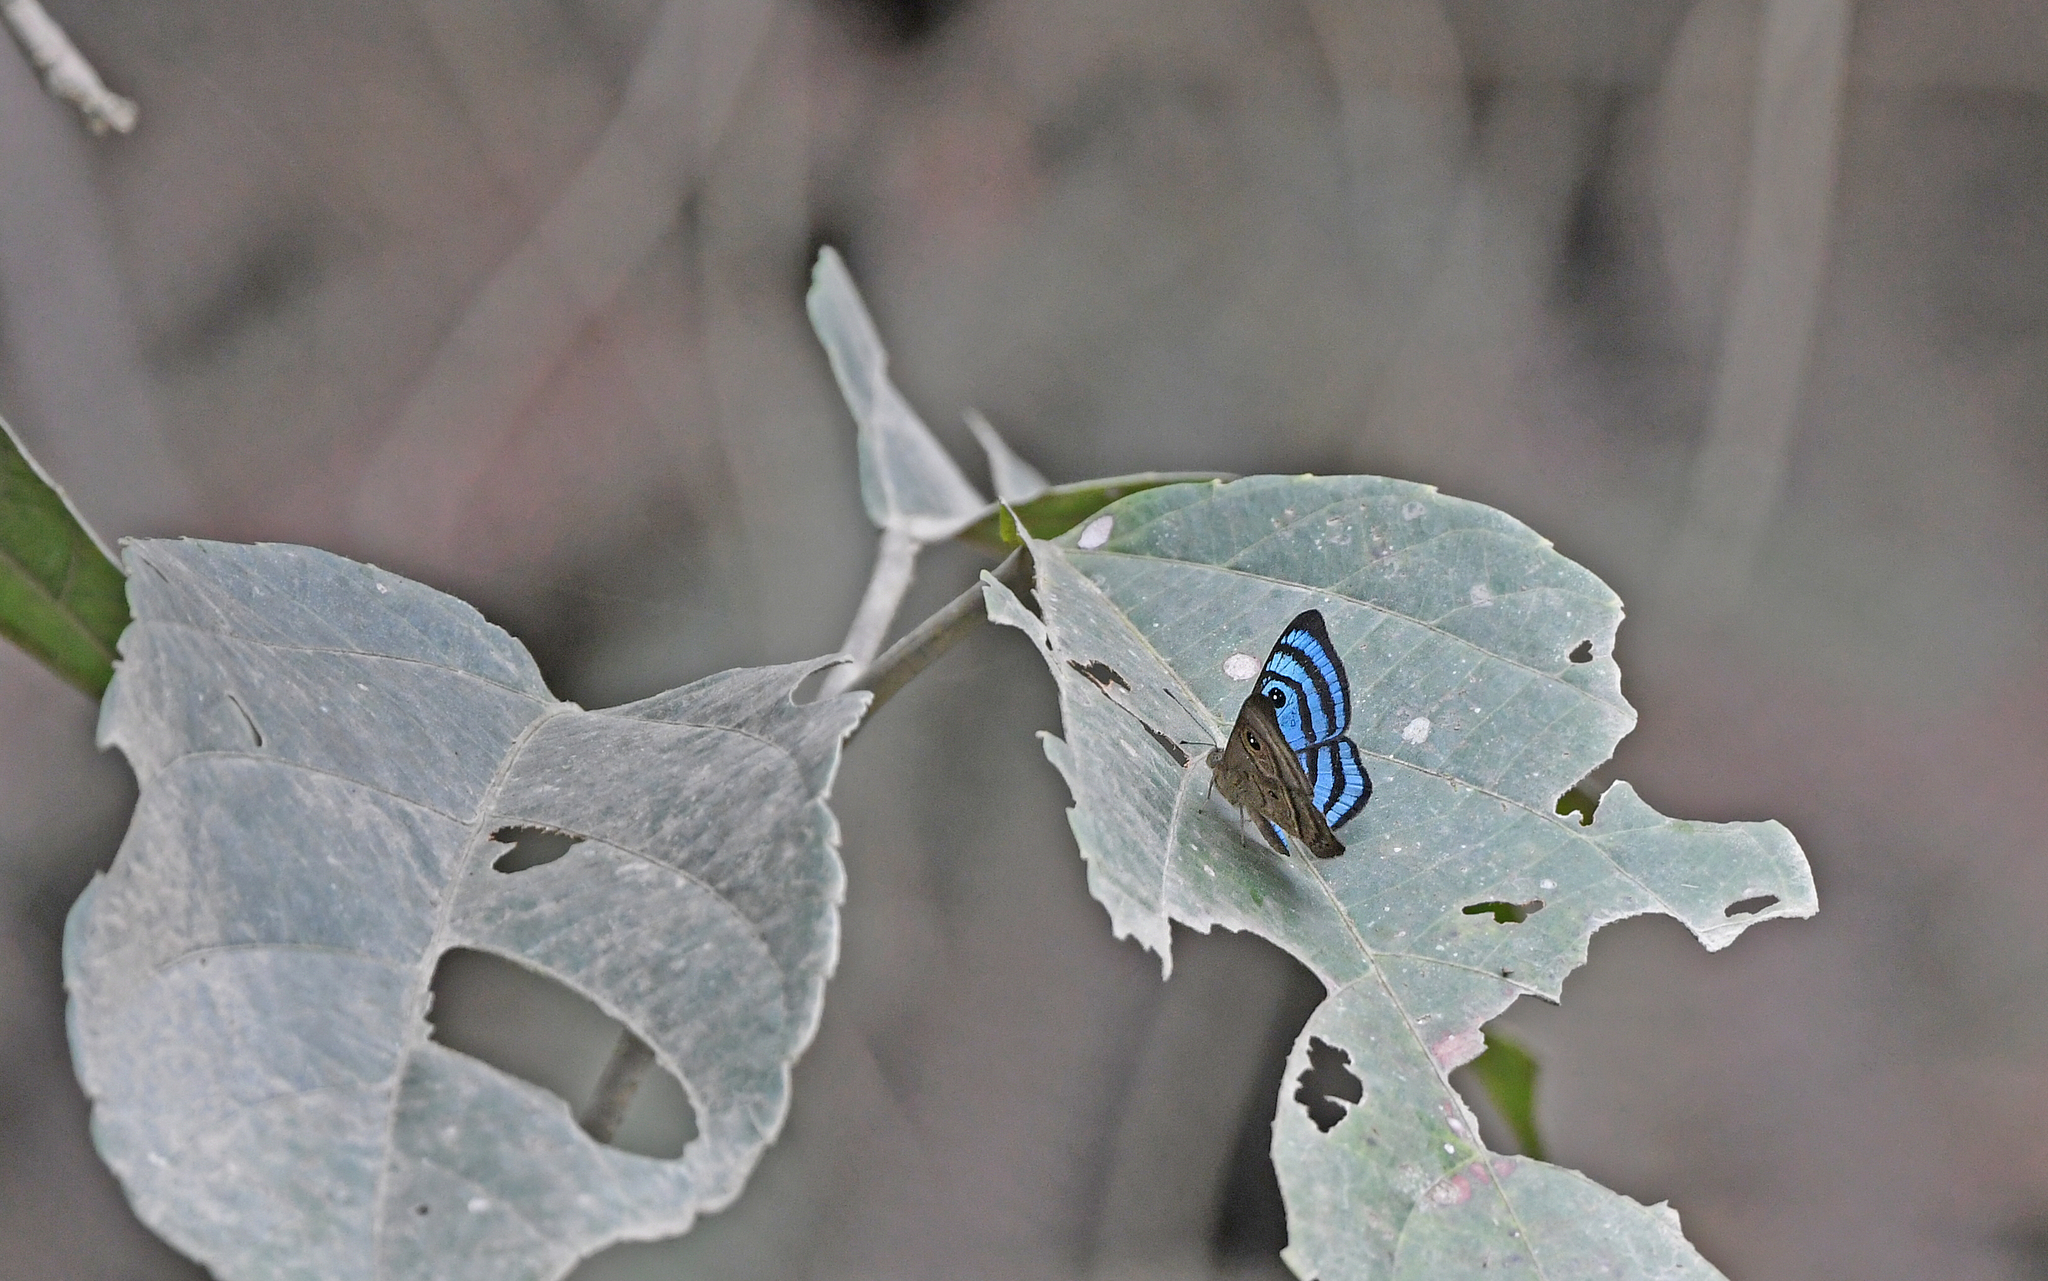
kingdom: Animalia
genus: Mesosemia
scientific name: Mesosemia praeculta
